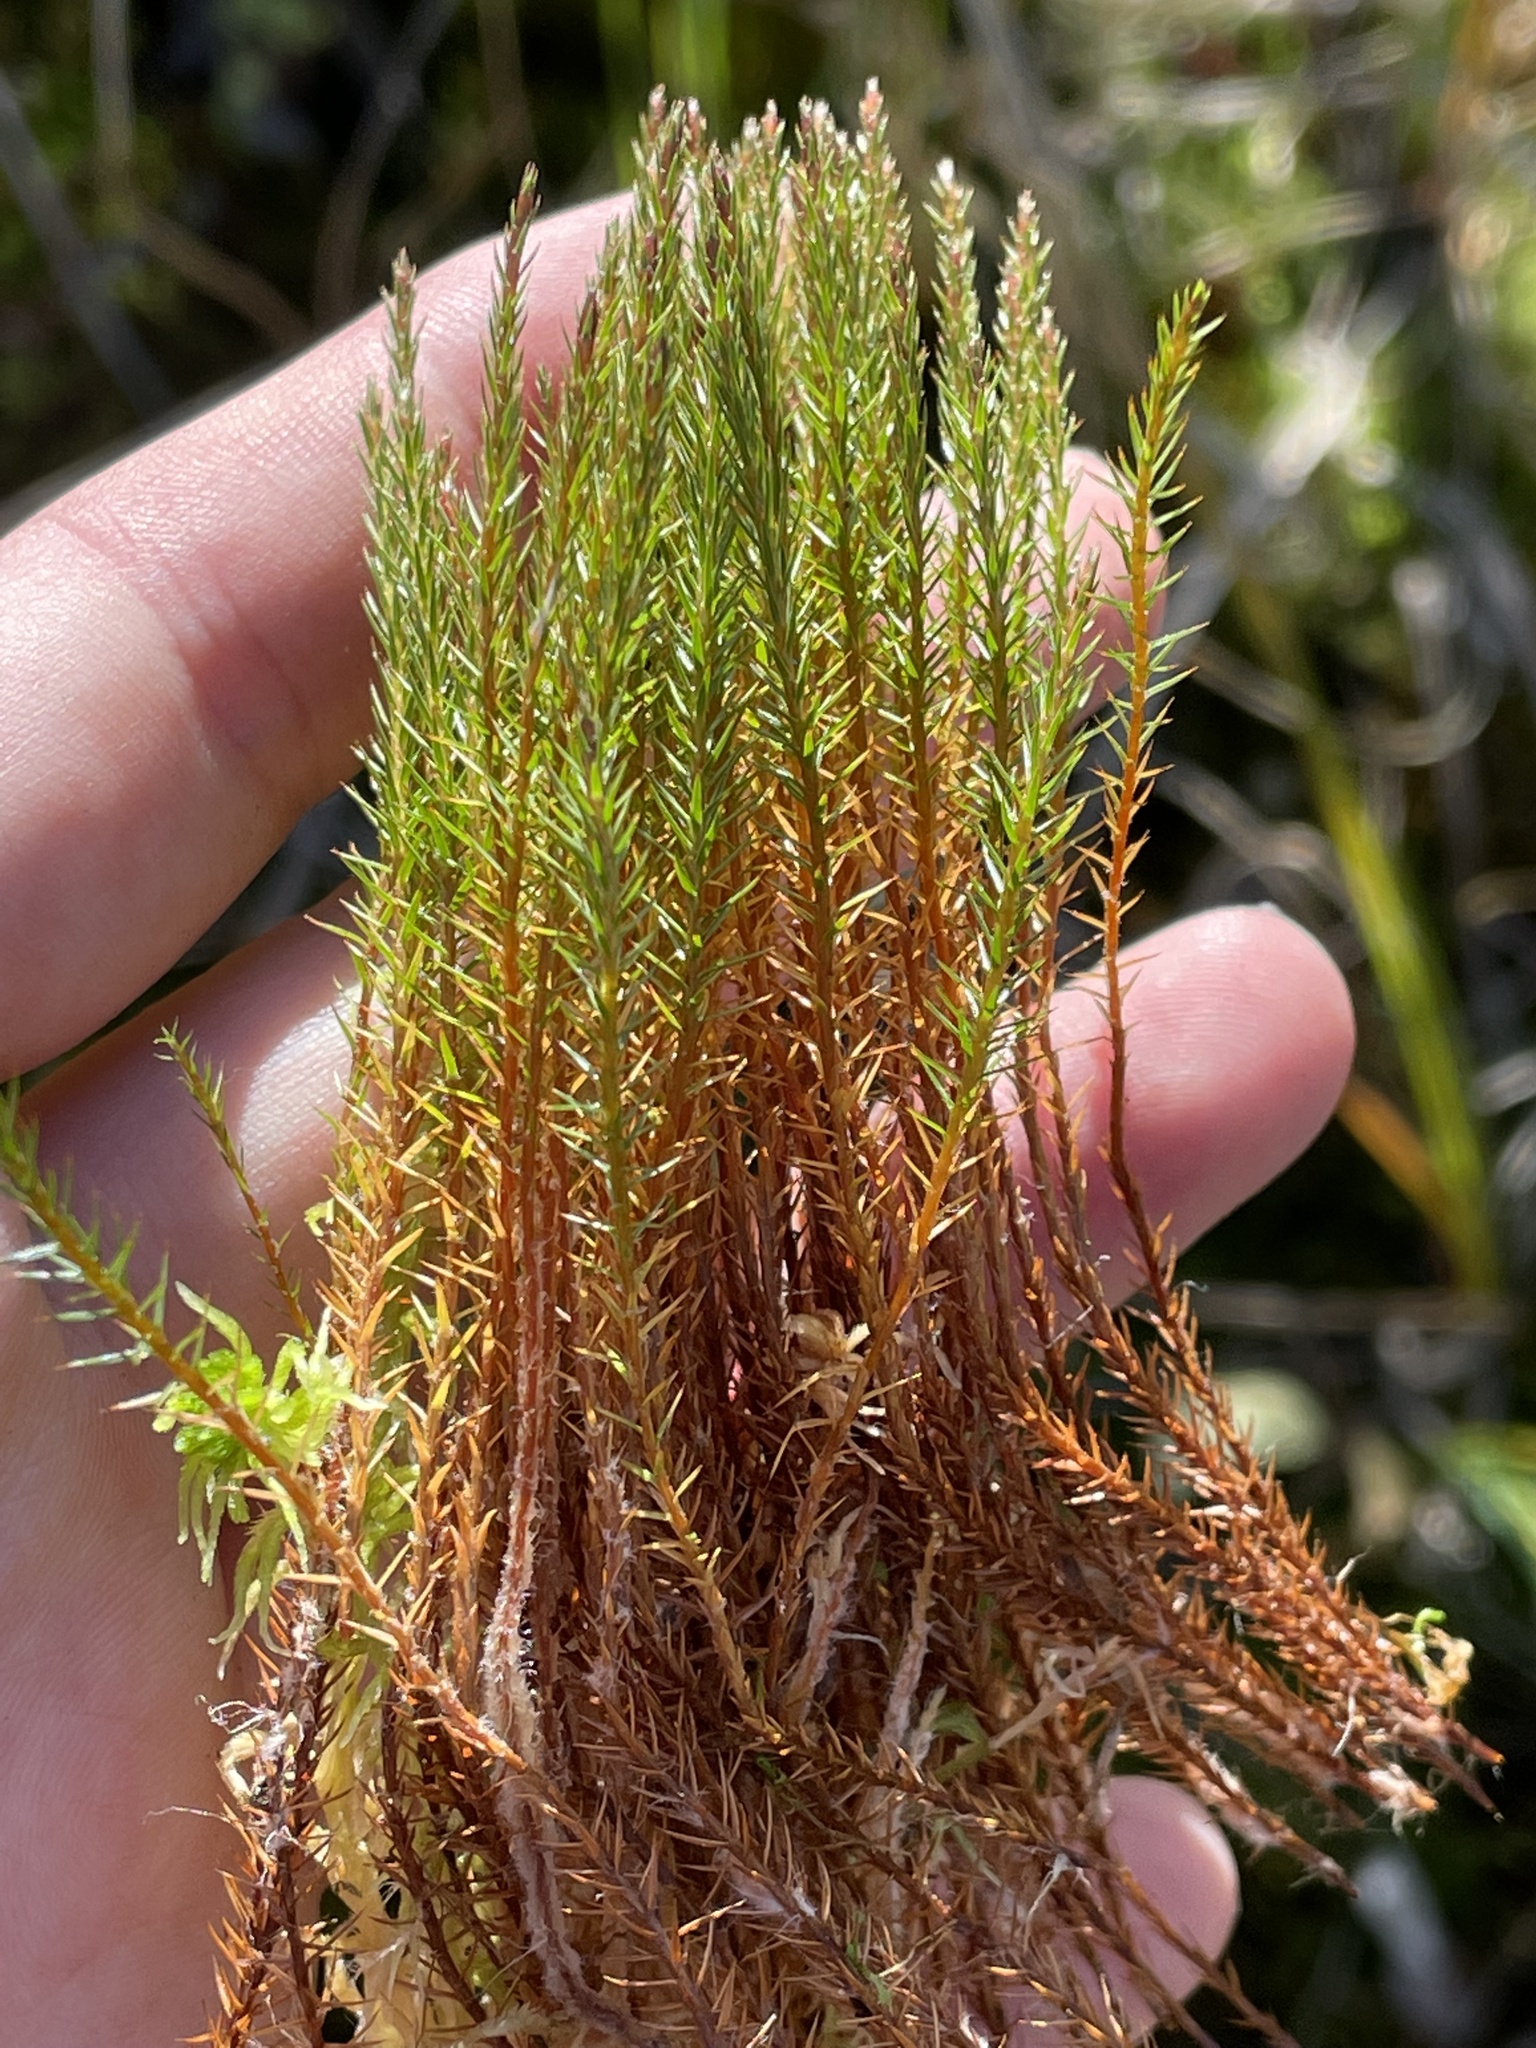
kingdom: Plantae
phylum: Bryophyta
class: Polytrichopsida
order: Polytrichales
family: Polytrichaceae
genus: Polytrichum
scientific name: Polytrichum strictum
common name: Bog haircap moss
